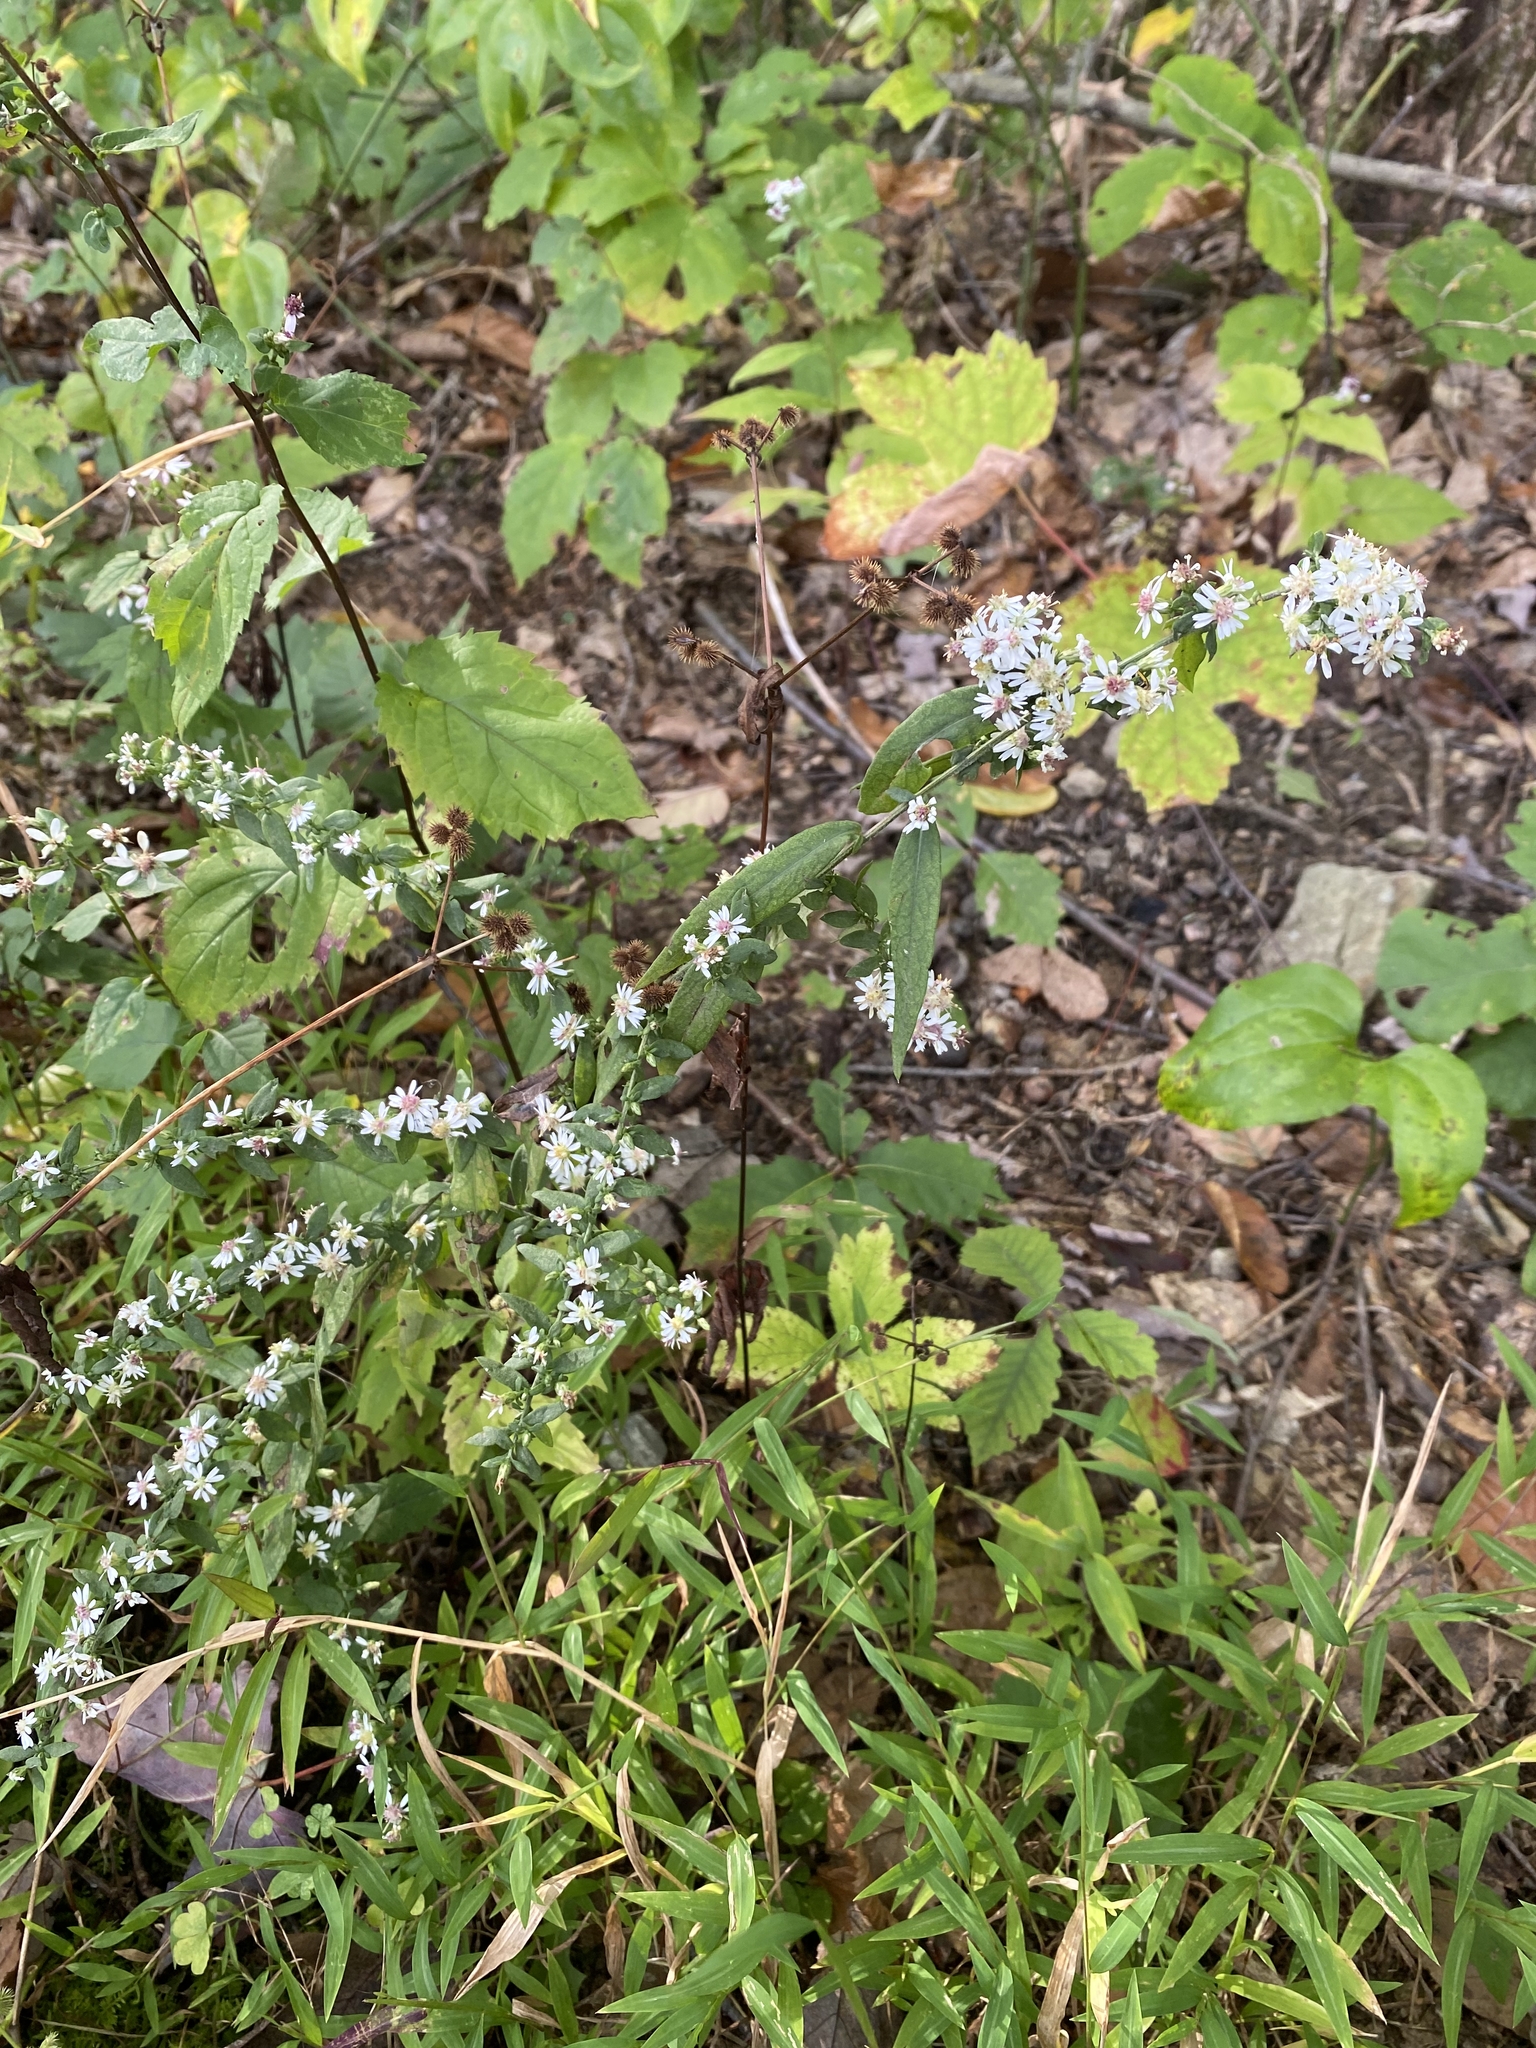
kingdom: Plantae
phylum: Tracheophyta
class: Magnoliopsida
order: Asterales
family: Asteraceae
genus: Symphyotrichum
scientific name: Symphyotrichum lateriflorum
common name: Calico aster
